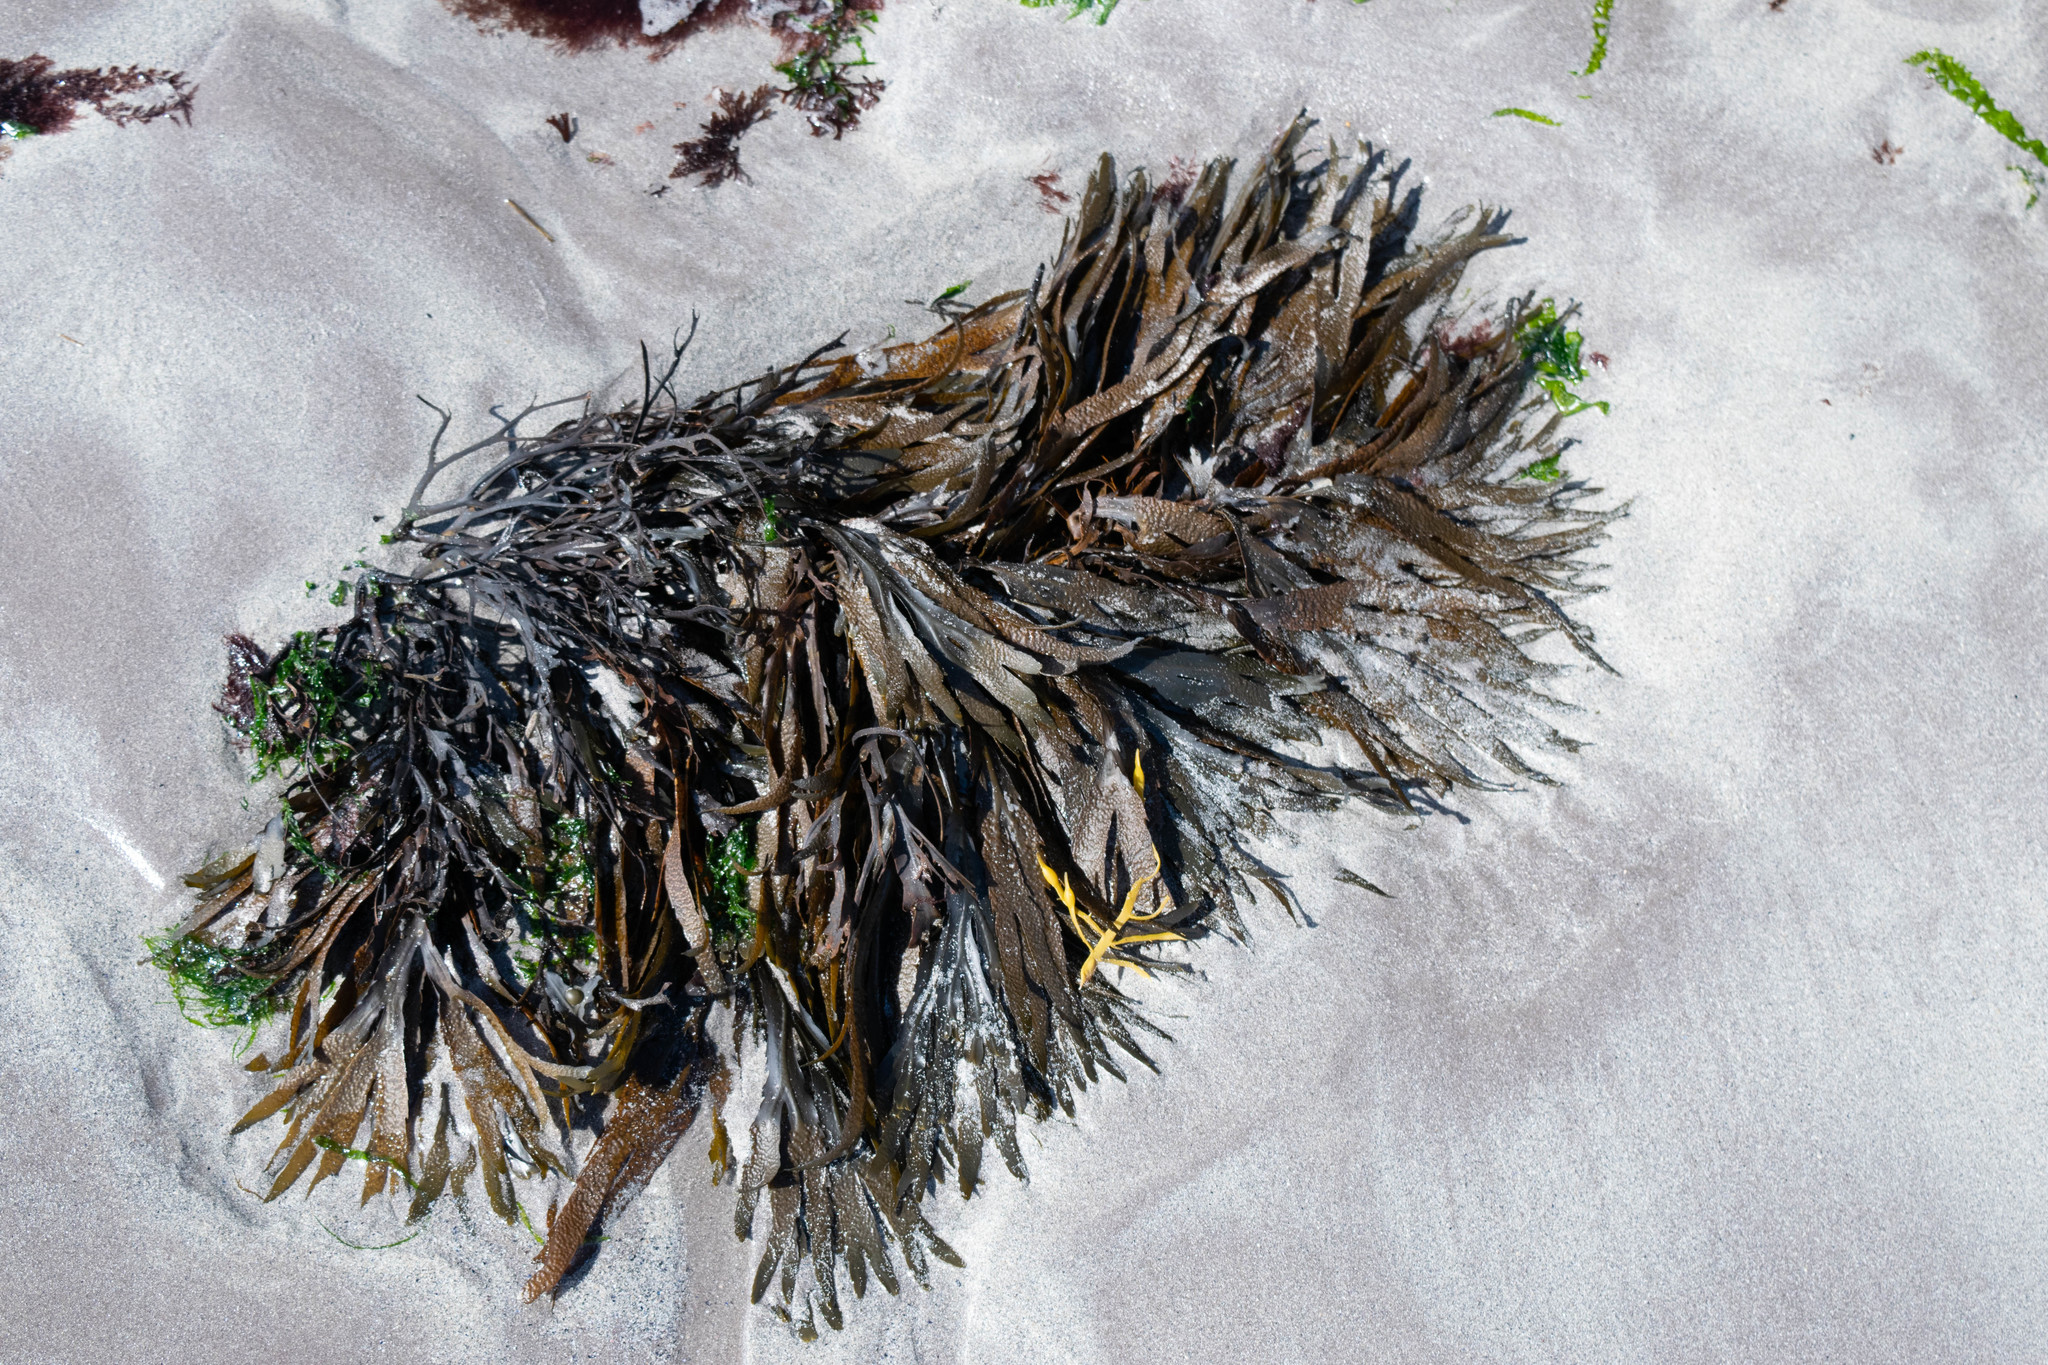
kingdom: Chromista
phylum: Ochrophyta
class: Phaeophyceae
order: Fucales
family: Fucaceae
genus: Fucus
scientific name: Fucus serratus
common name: Toothed wrack
